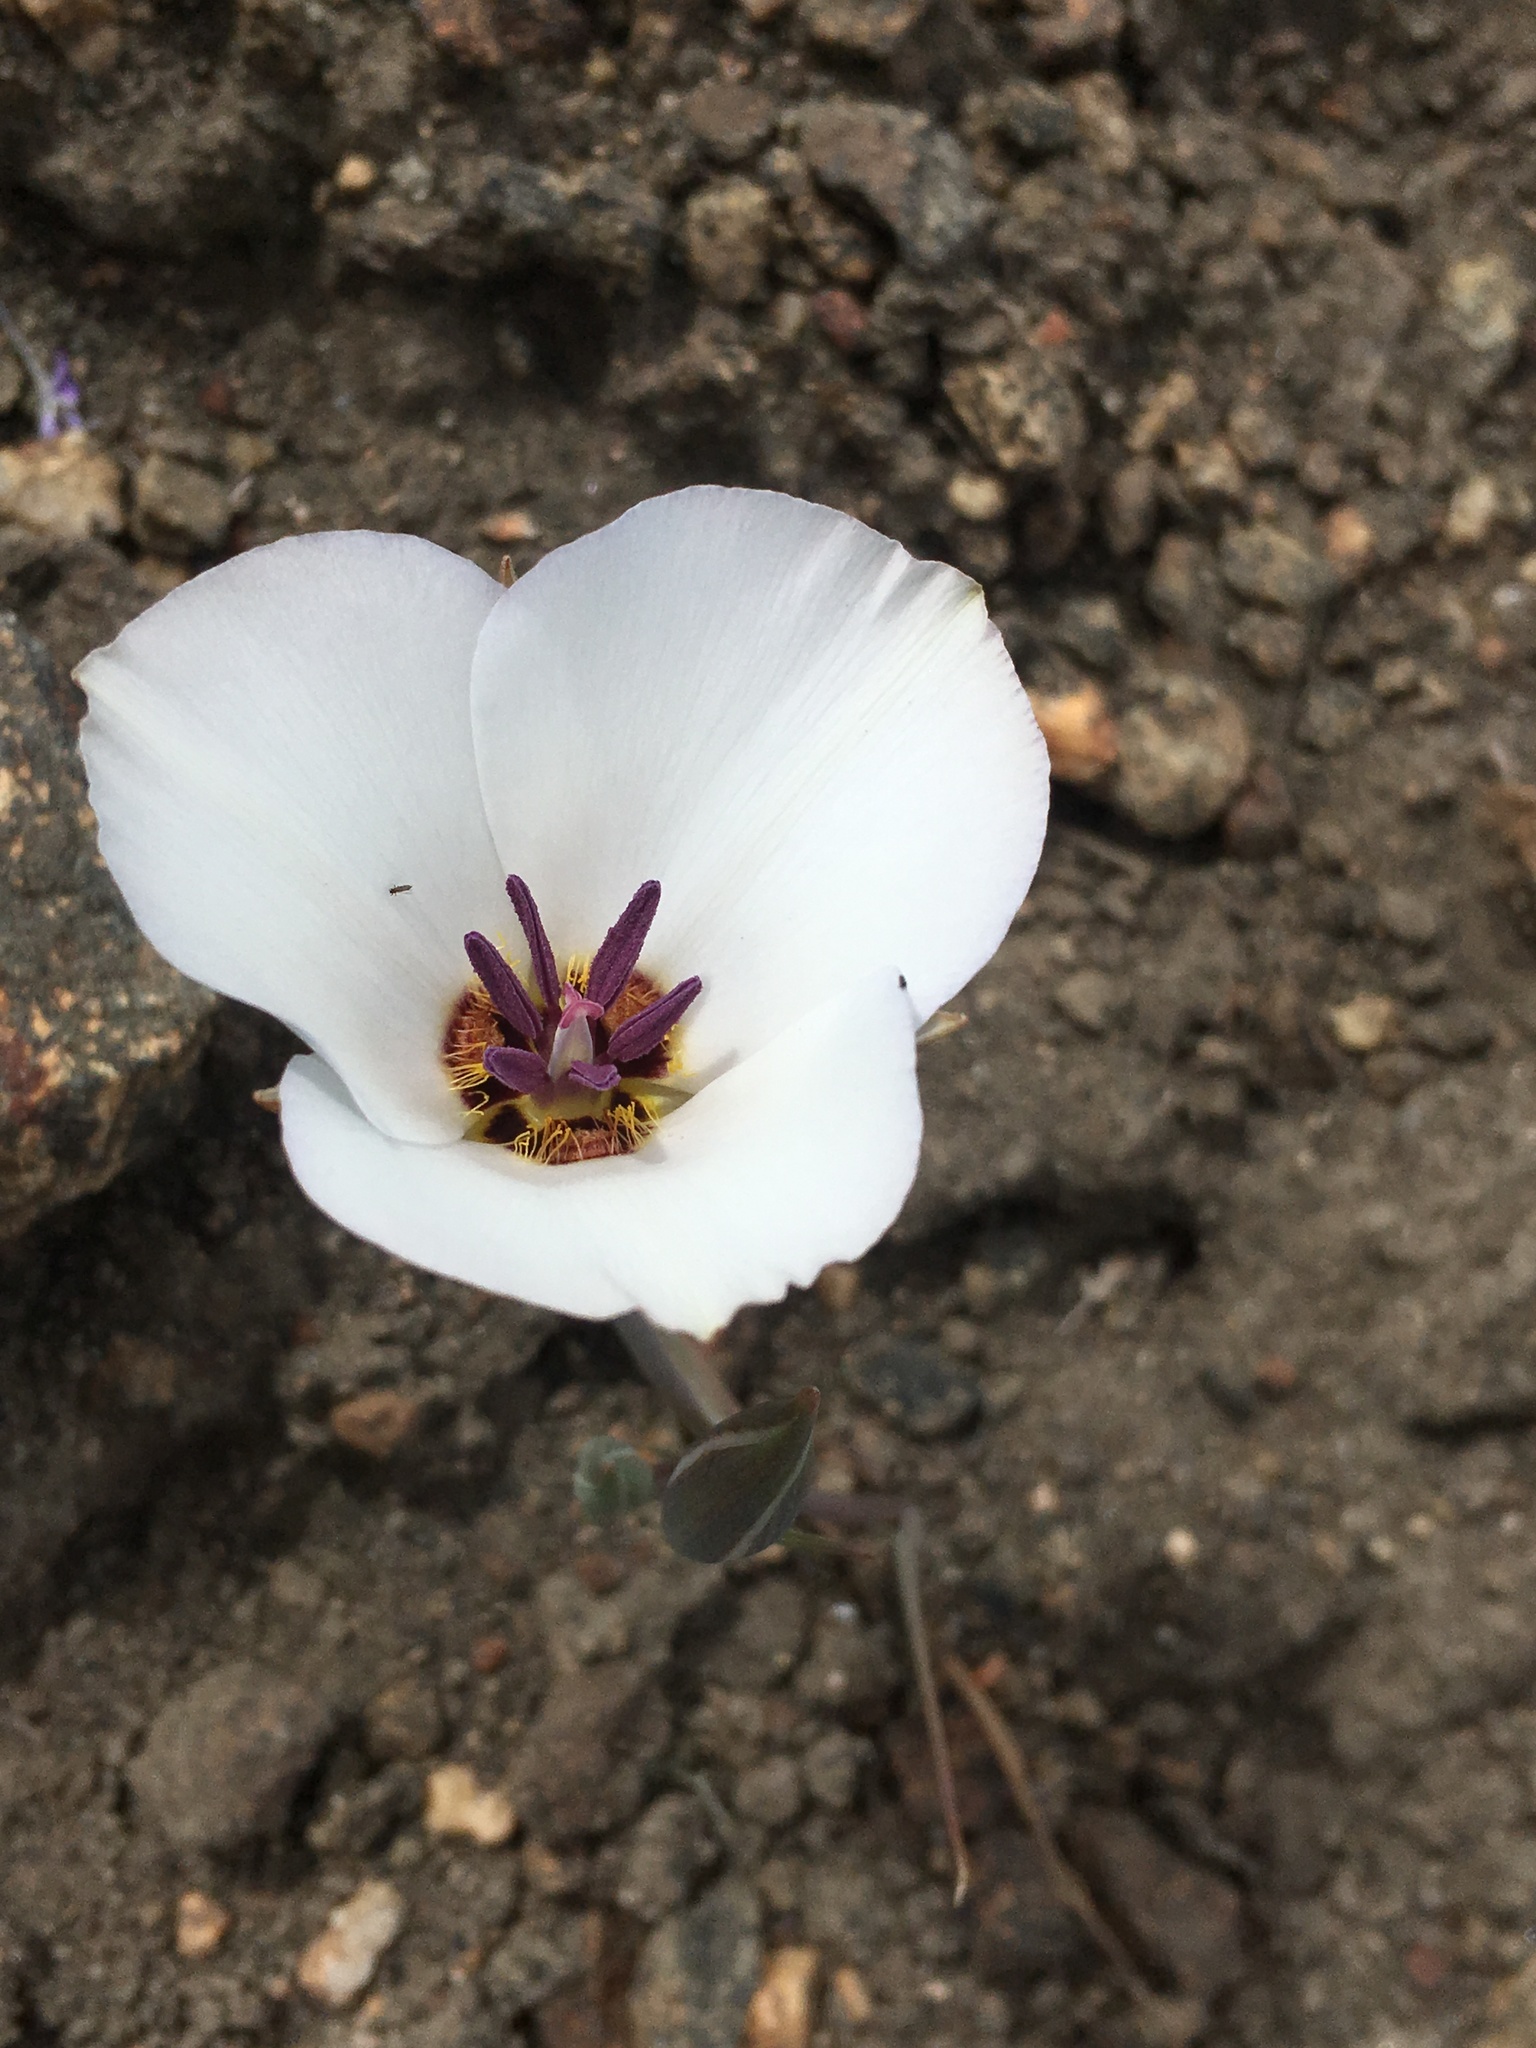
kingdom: Plantae
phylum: Tracheophyta
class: Liliopsida
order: Liliales
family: Liliaceae
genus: Calochortus
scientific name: Calochortus invenustus
